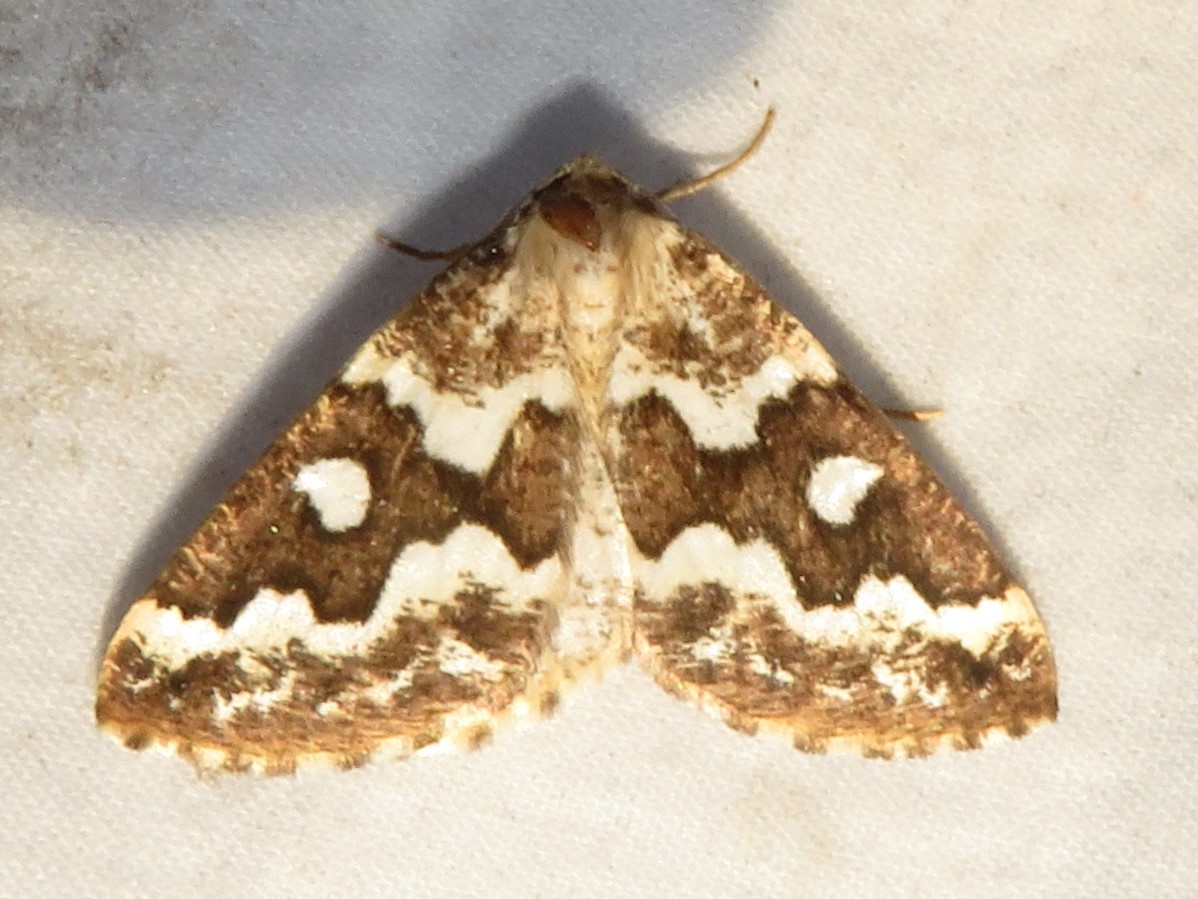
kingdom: Animalia
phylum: Arthropoda
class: Insecta
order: Lepidoptera
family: Geometridae
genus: Caripeta
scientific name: Caripeta divisata
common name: Gray spruce looper
